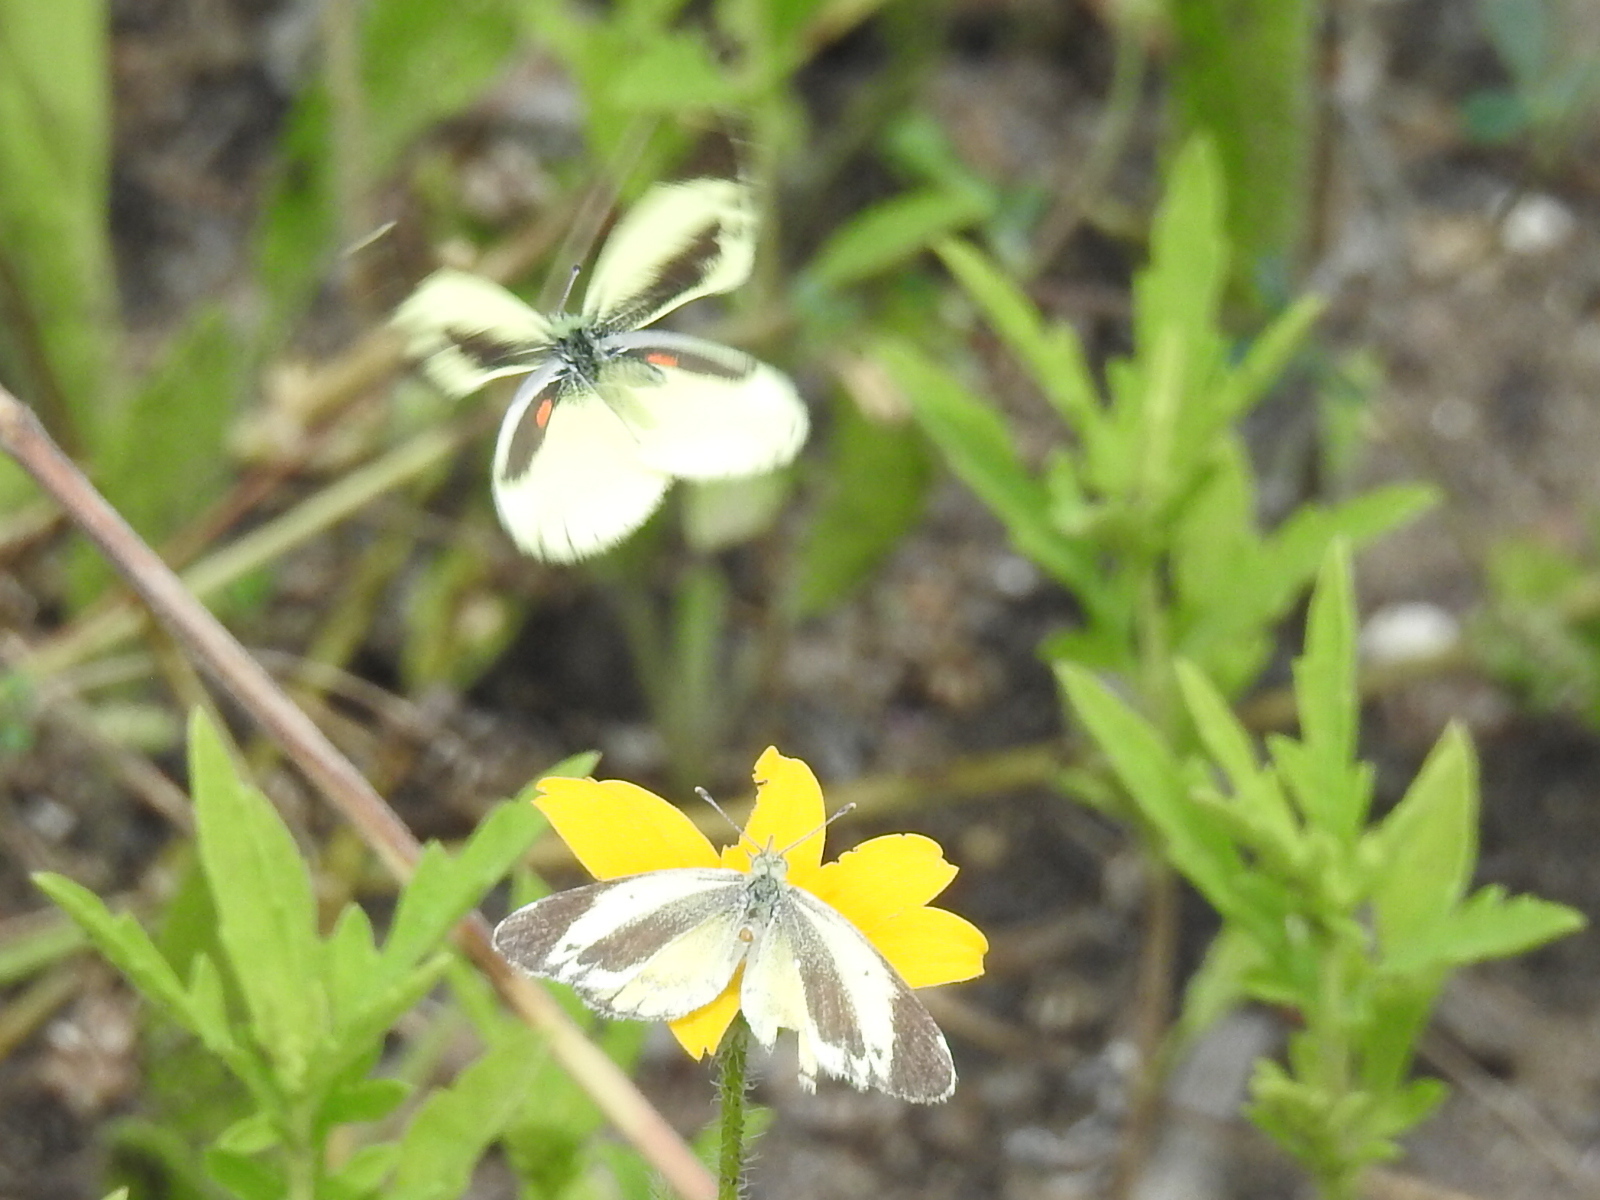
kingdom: Animalia
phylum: Arthropoda
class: Insecta
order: Lepidoptera
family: Pieridae
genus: Nathalis
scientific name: Nathalis iole
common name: Dainty sulphur
